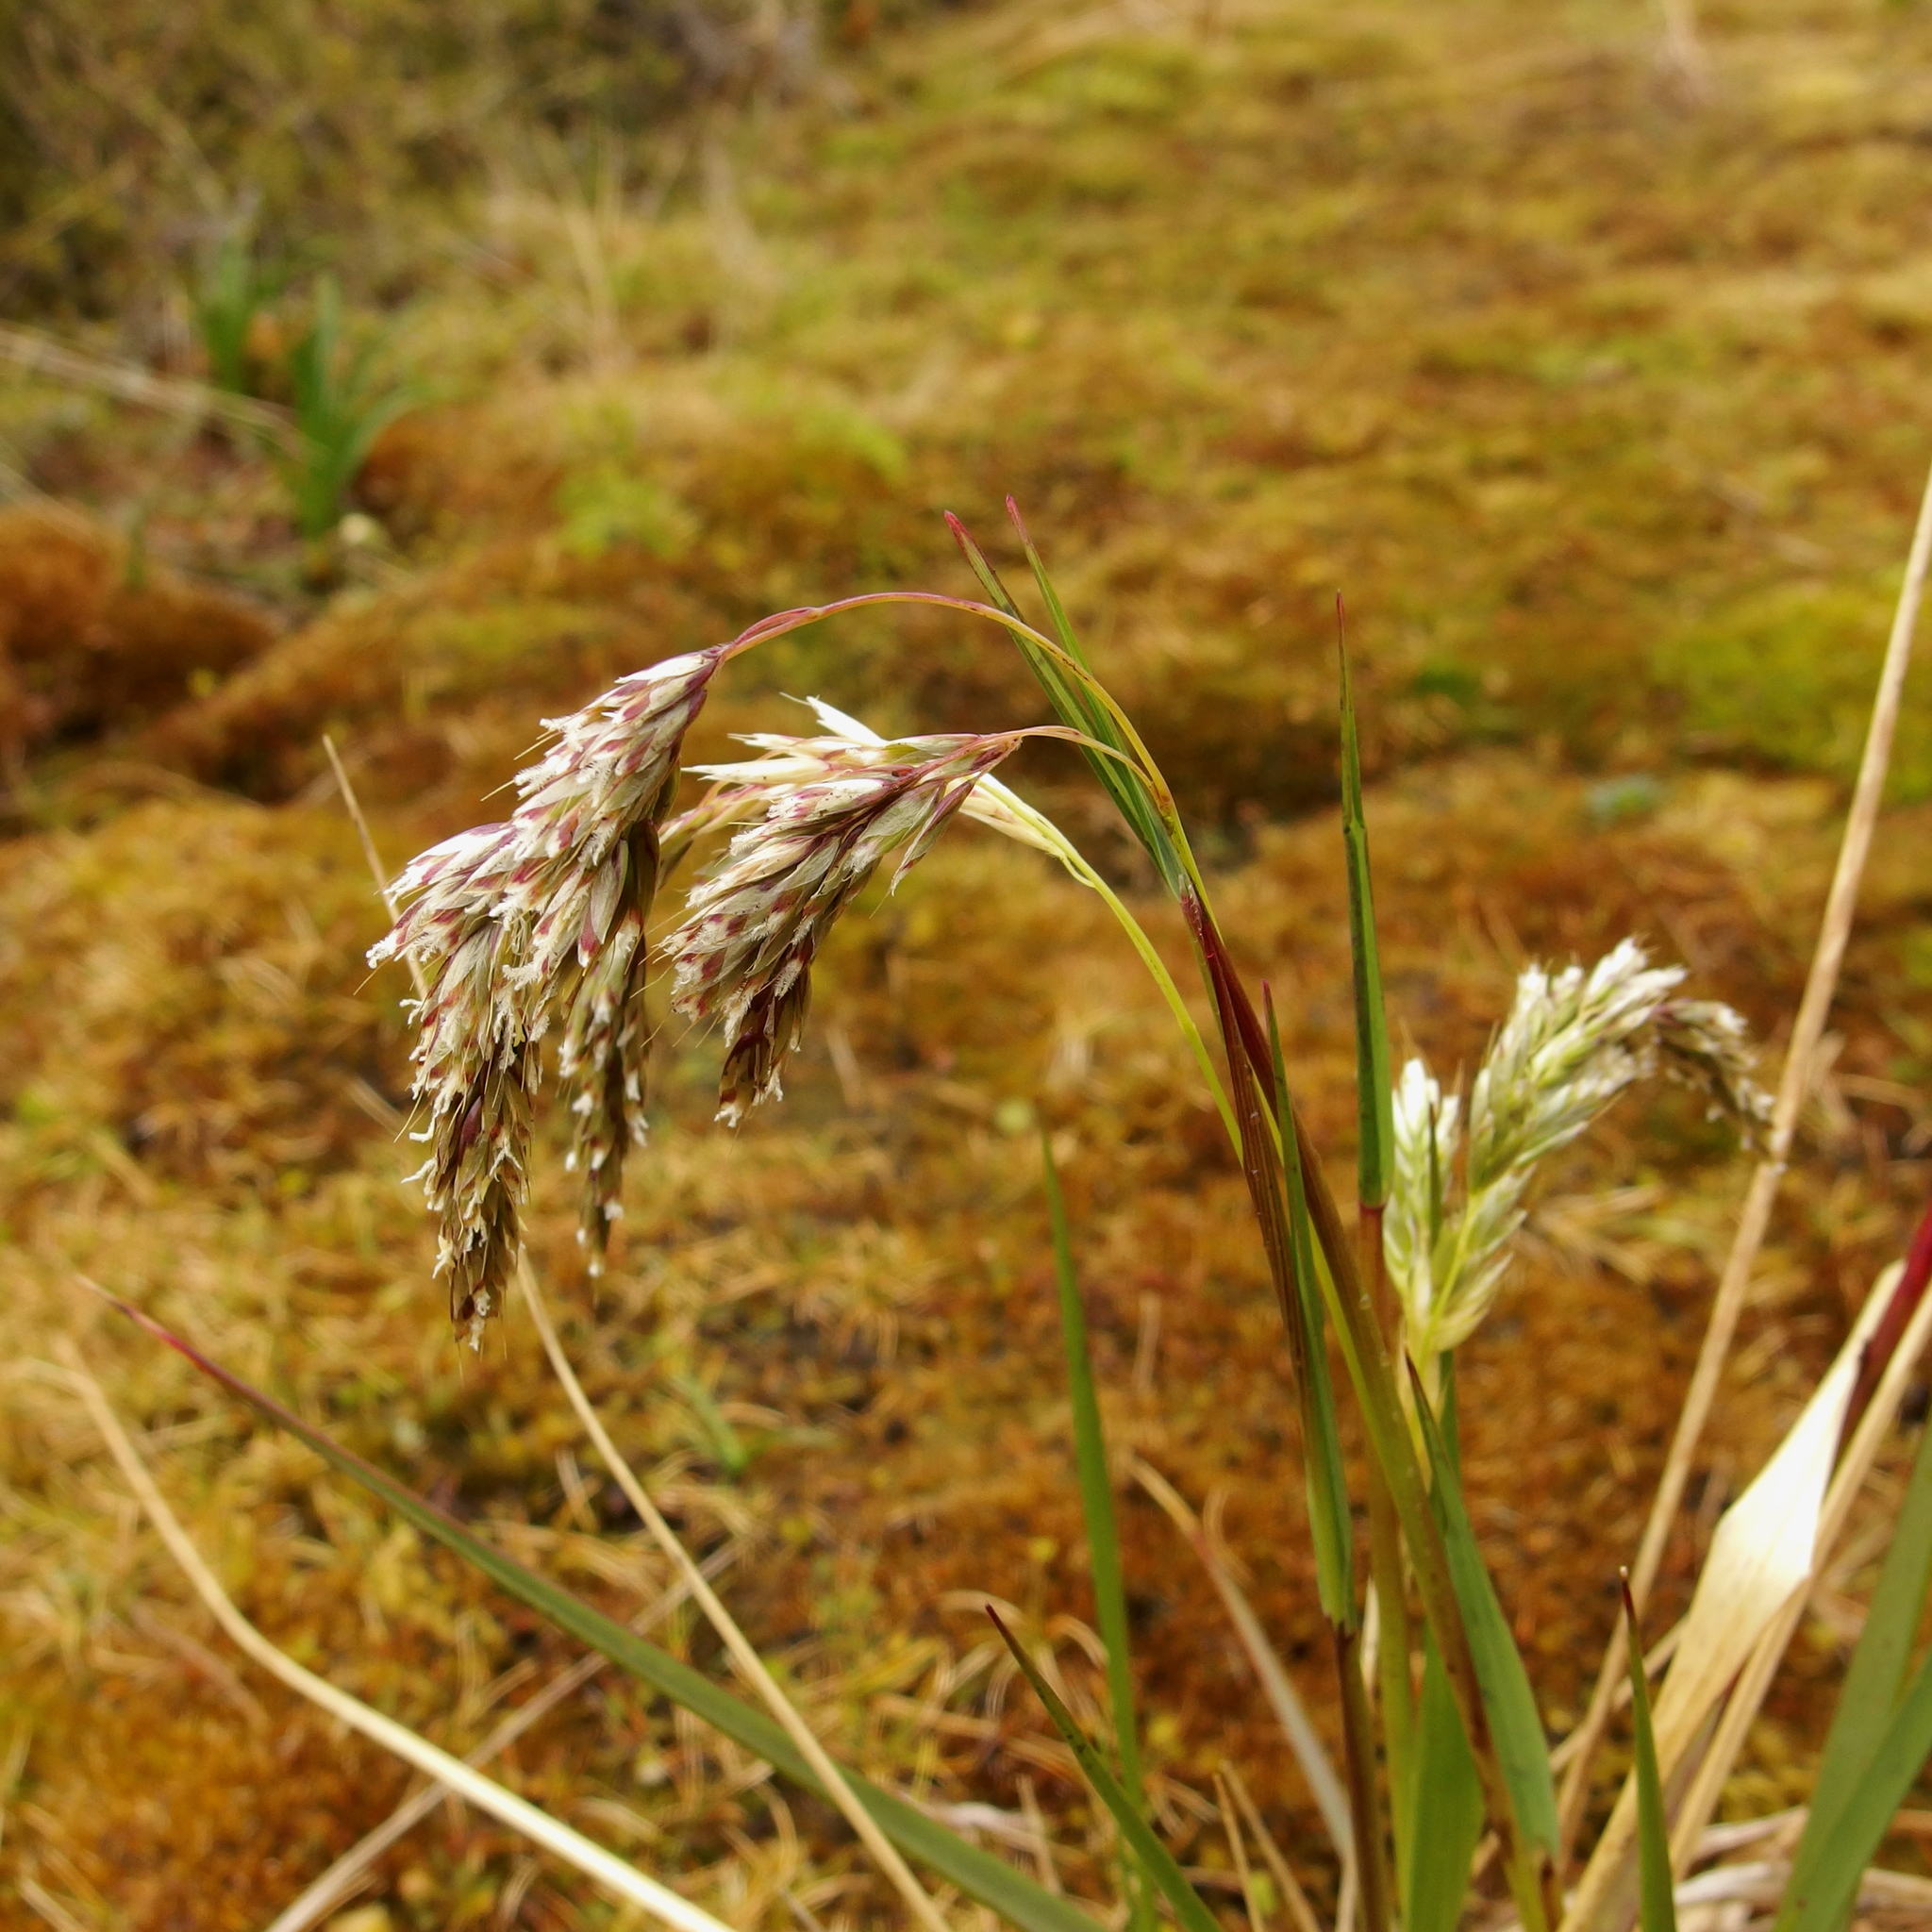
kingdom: Plantae
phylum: Tracheophyta
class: Liliopsida
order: Poales
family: Poaceae
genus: Anthoxanthum
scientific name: Anthoxanthum fuscum
